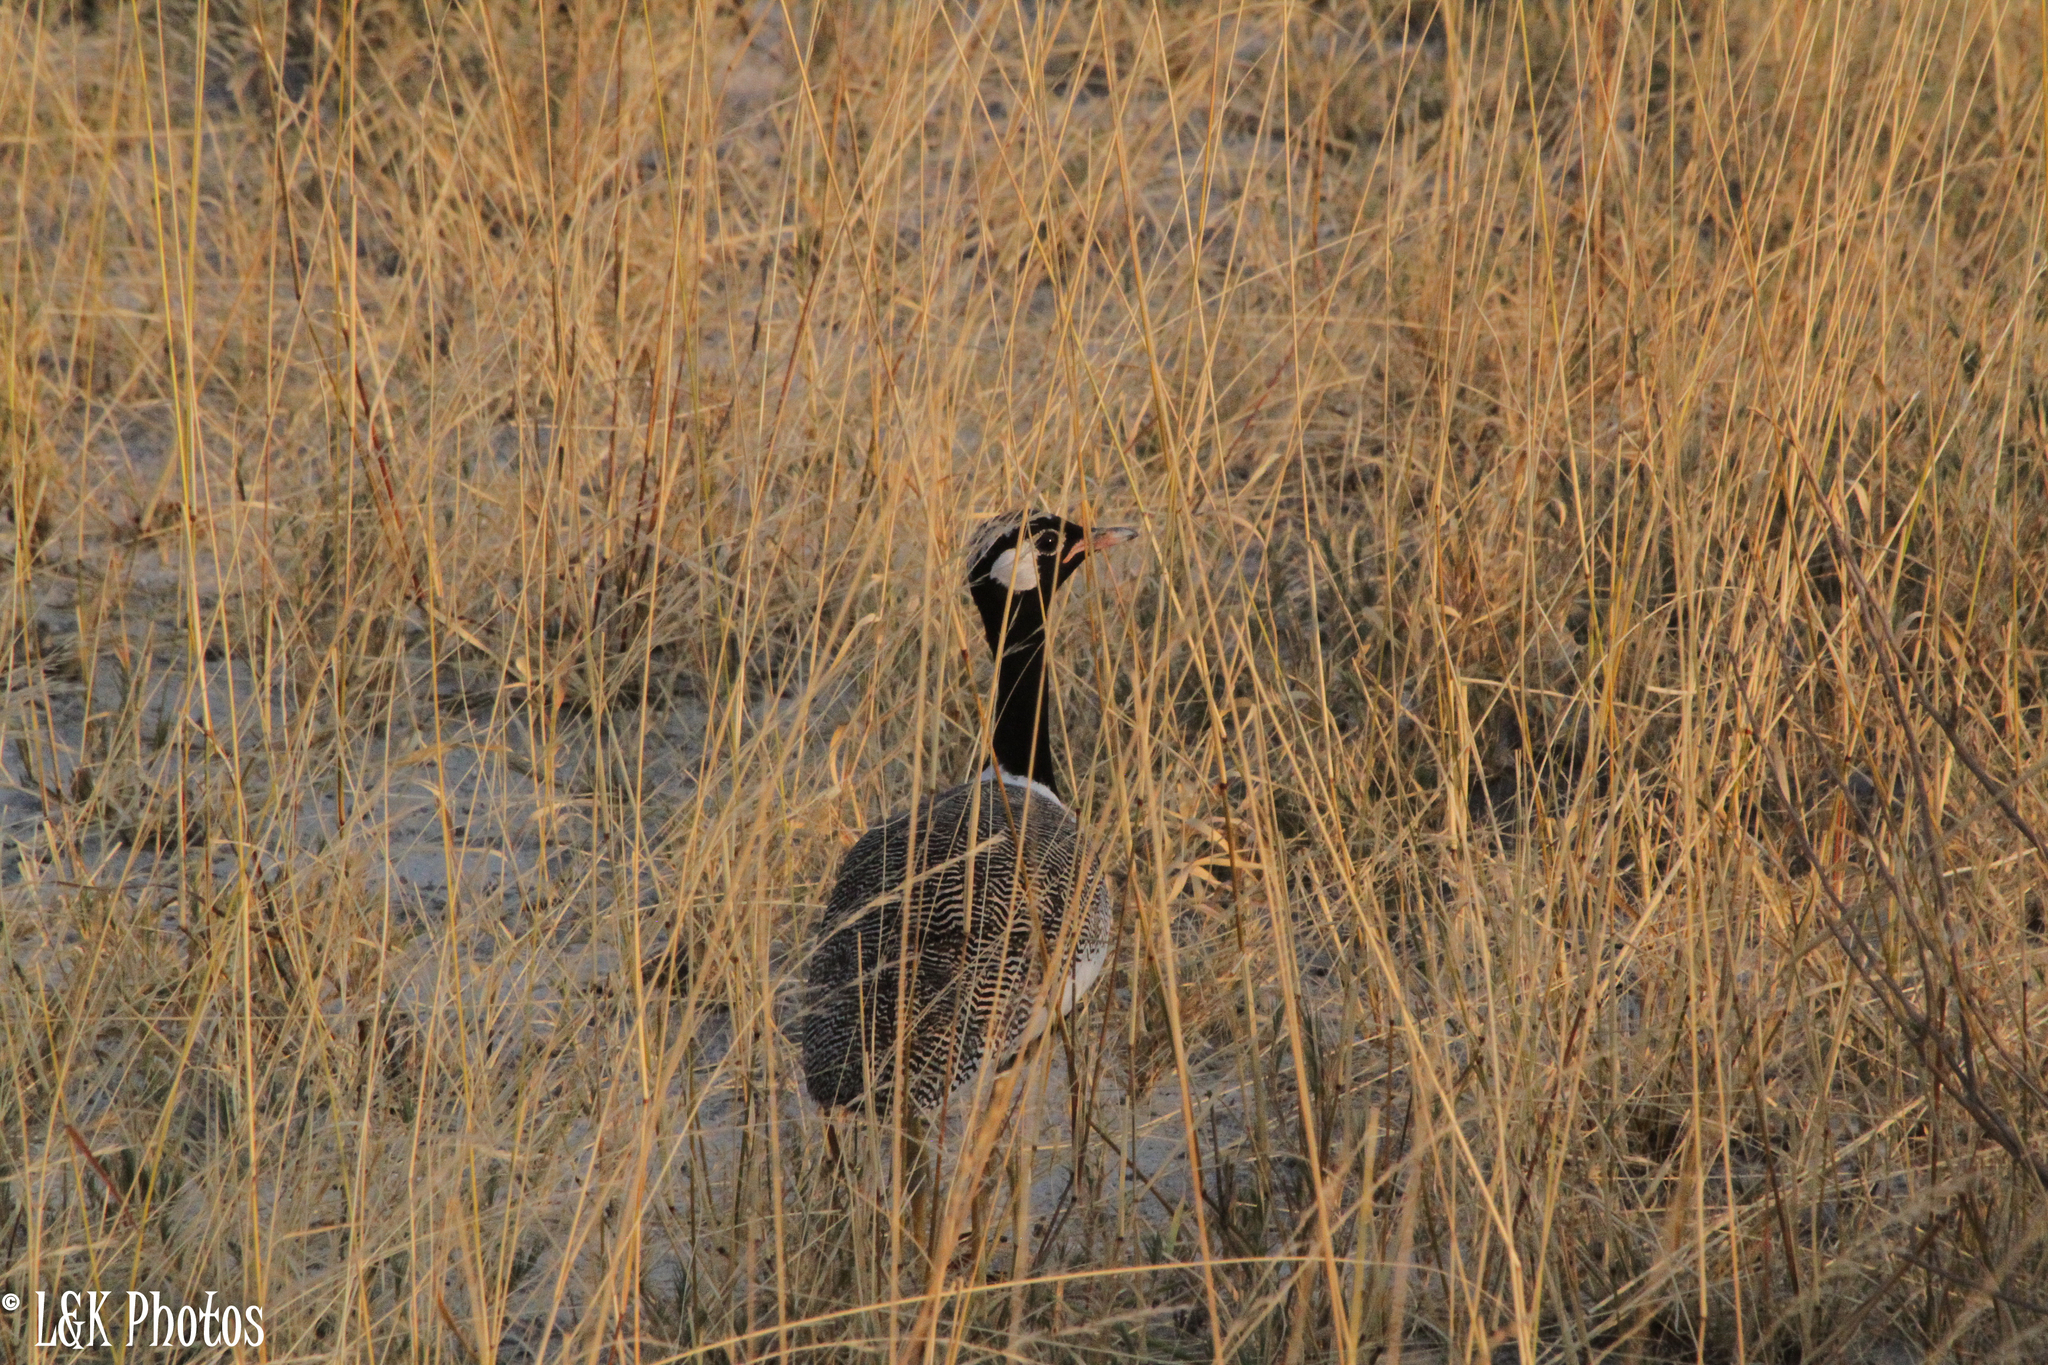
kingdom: Animalia
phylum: Chordata
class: Aves
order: Otidiformes
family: Otididae
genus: Afrotis
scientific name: Afrotis afraoides
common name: Northern black korhaan
